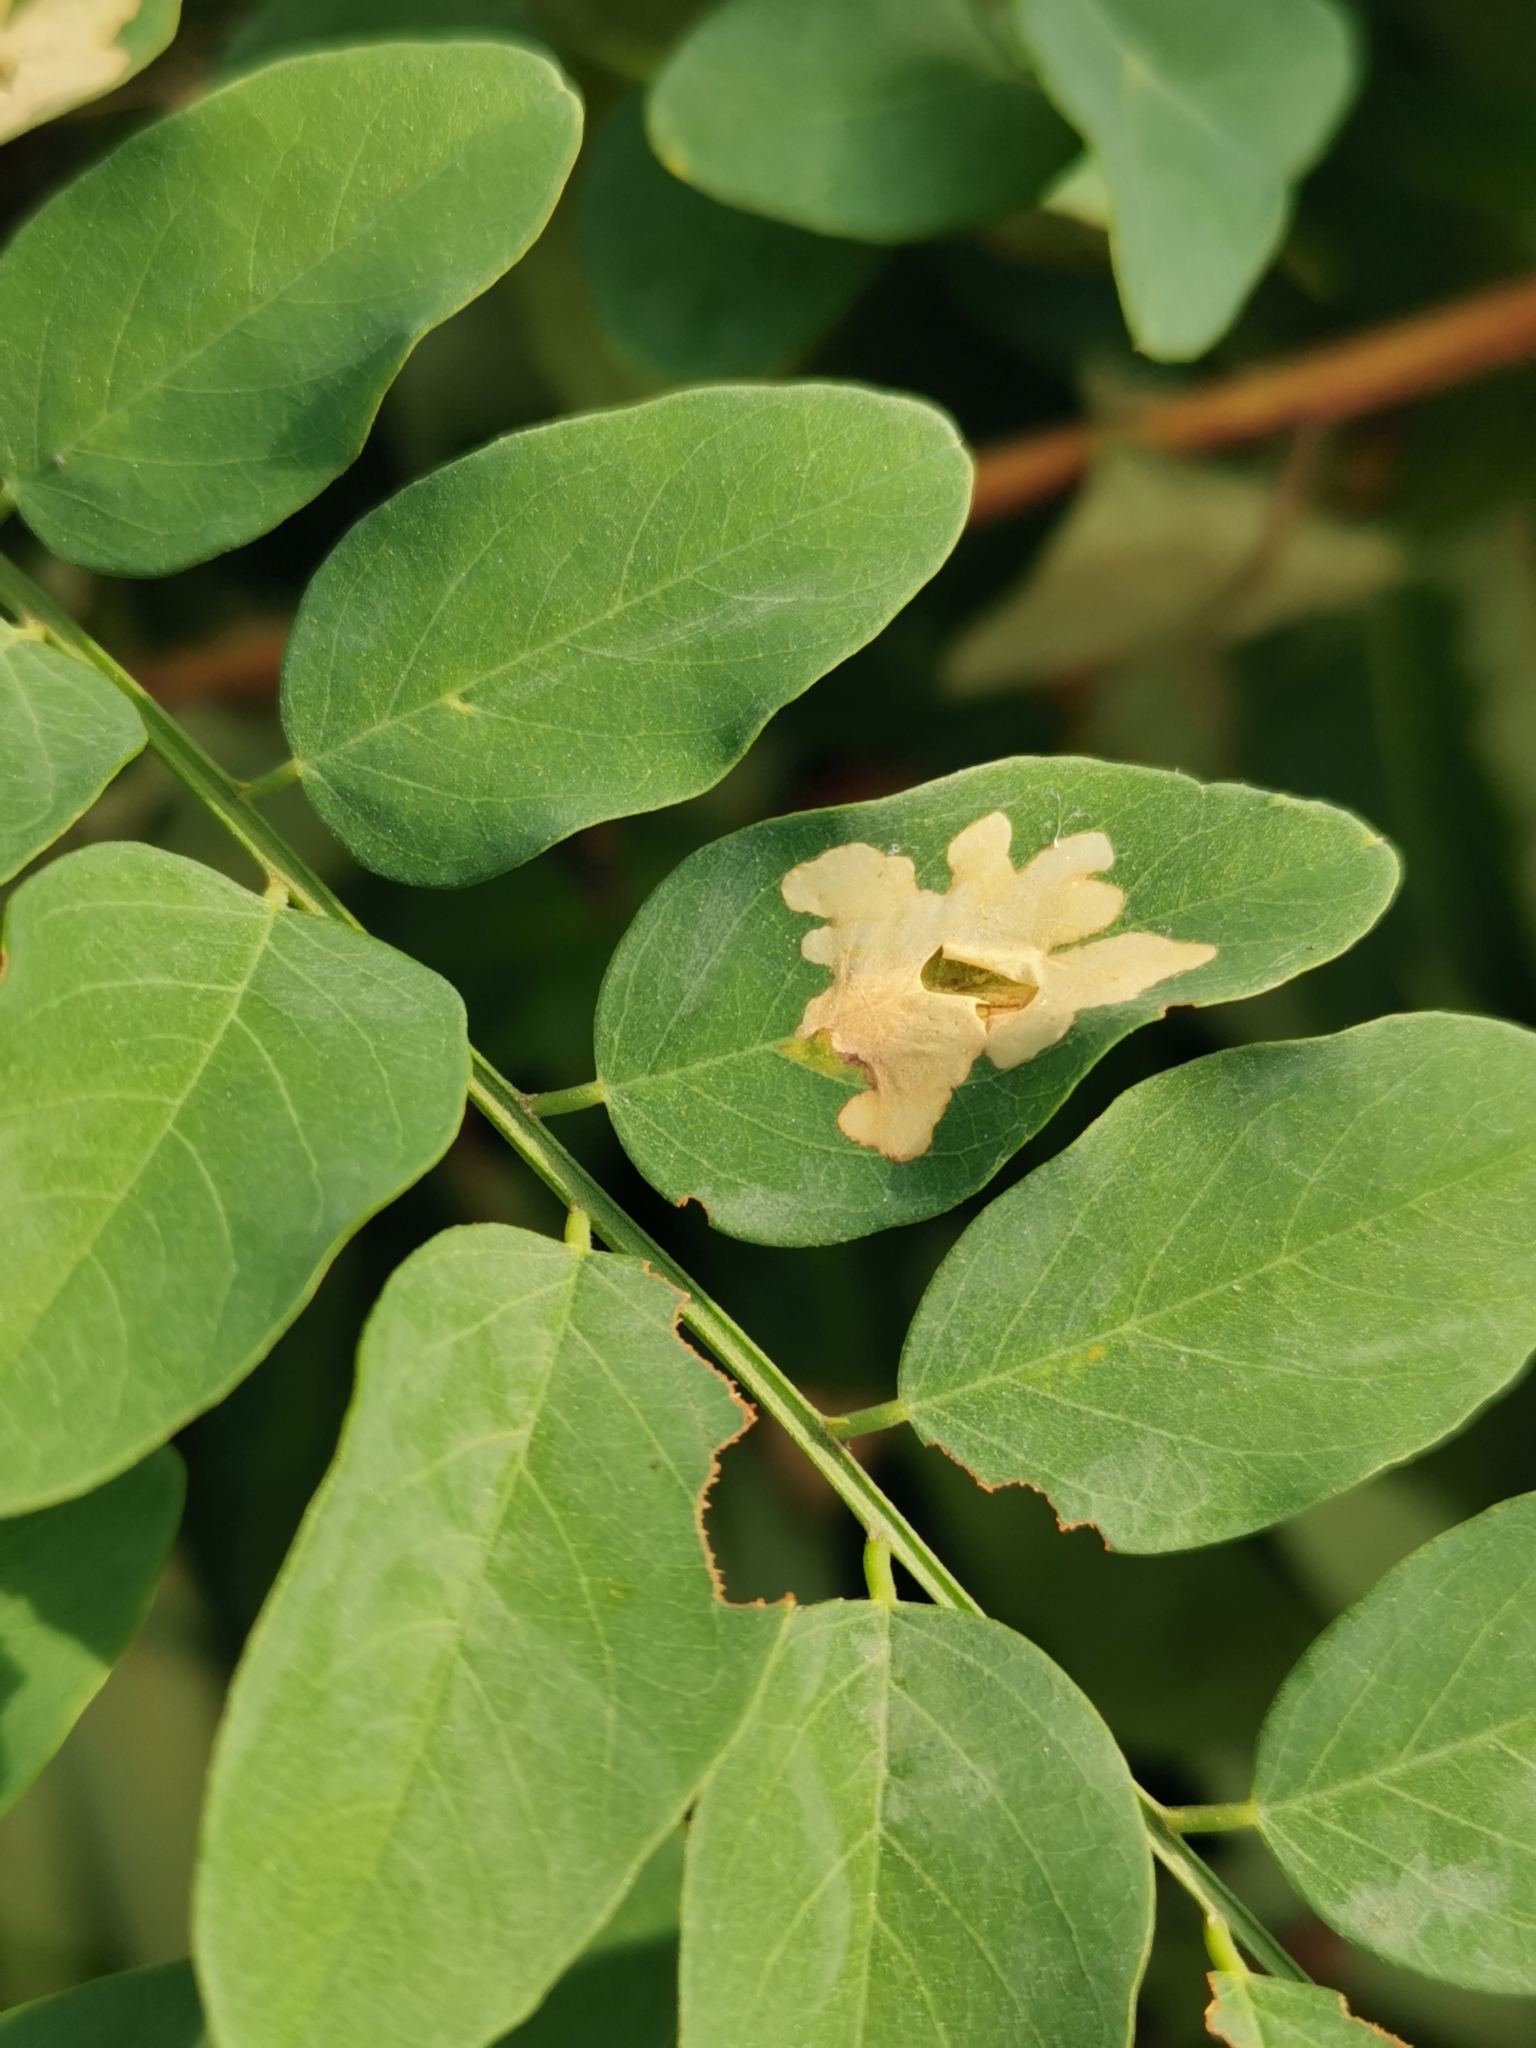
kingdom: Animalia
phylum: Arthropoda
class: Insecta
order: Lepidoptera
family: Gracillariidae
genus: Parectopa
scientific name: Parectopa robiniella
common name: Locust digitate leafminer
